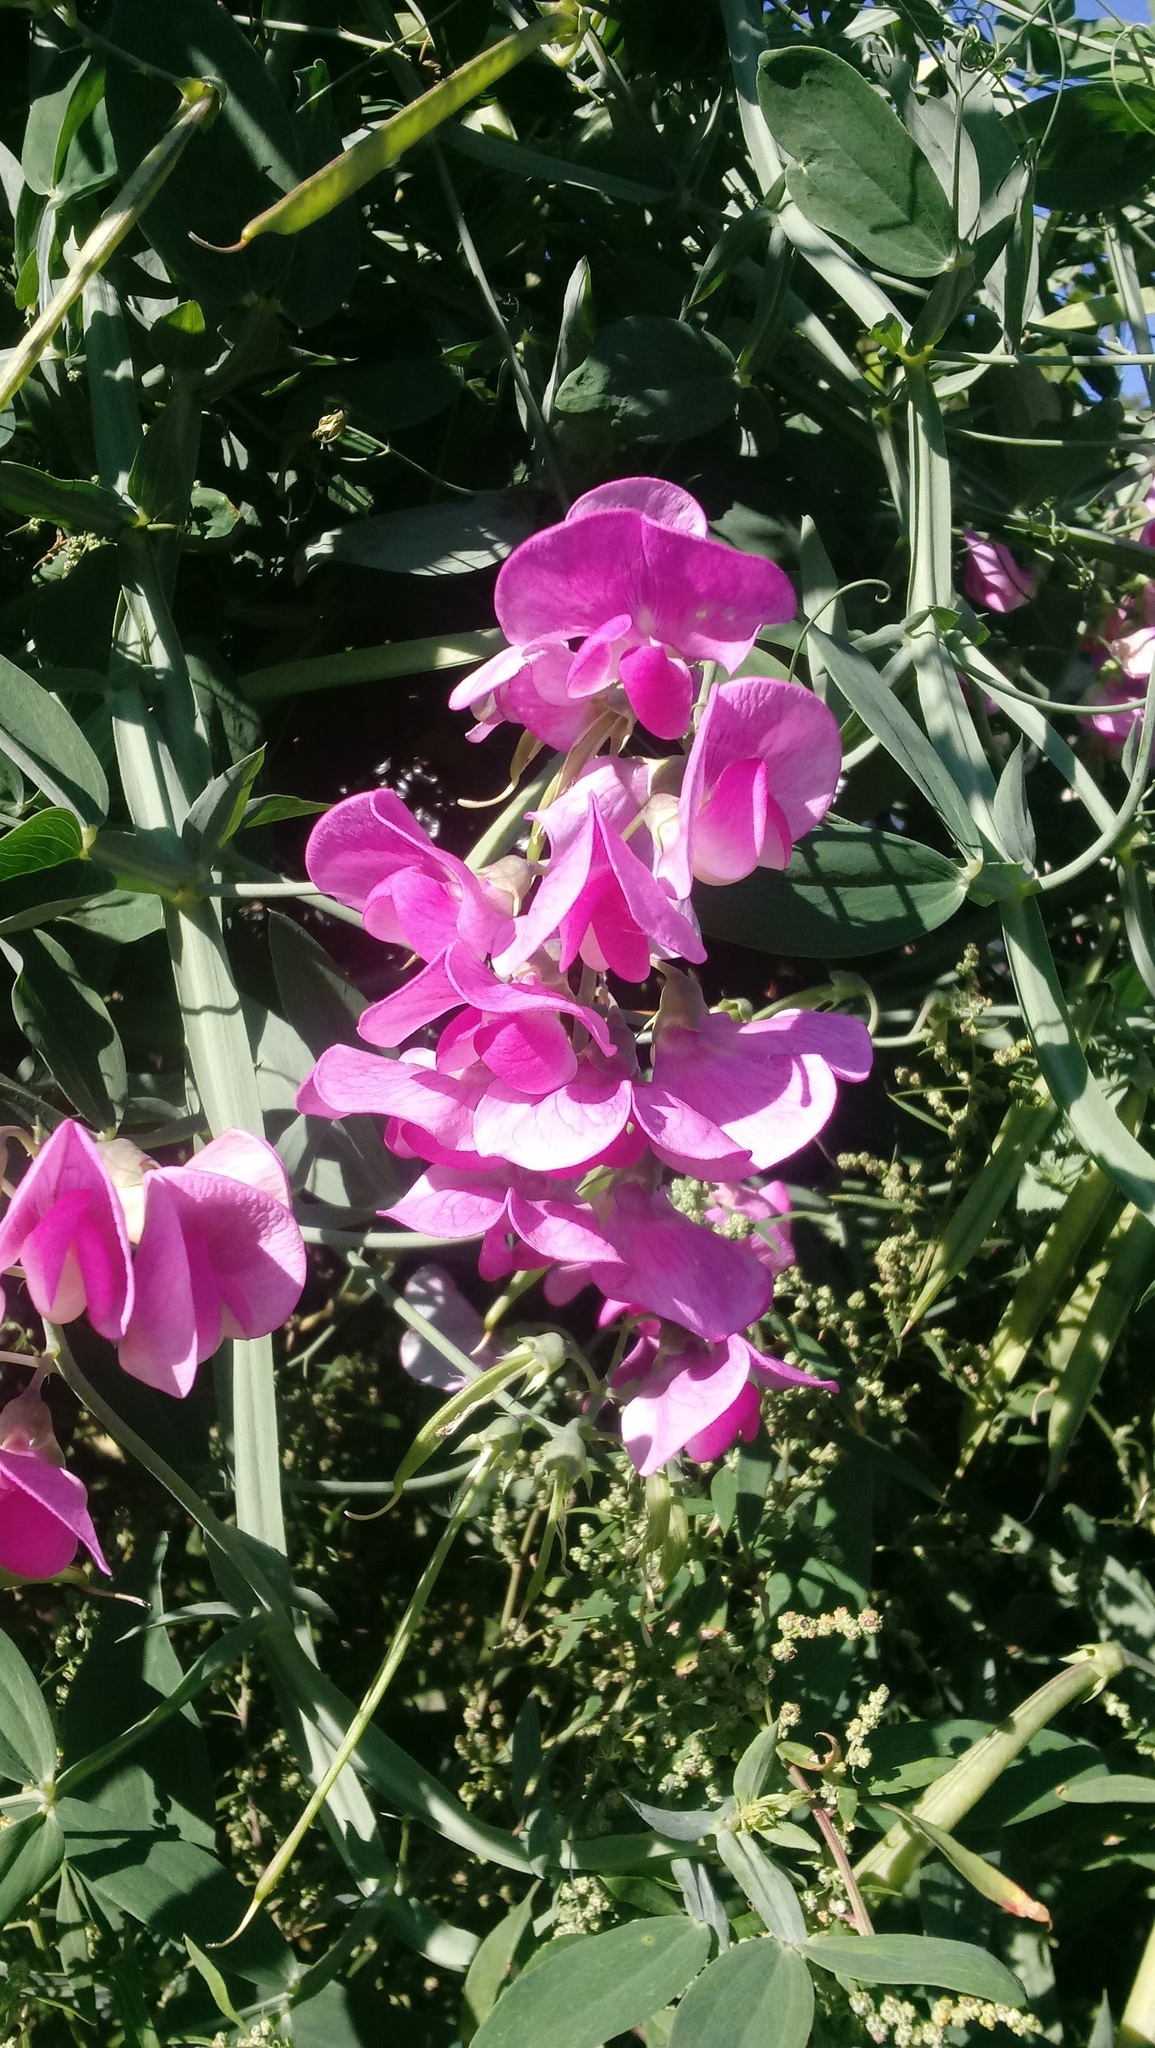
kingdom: Plantae
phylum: Tracheophyta
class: Magnoliopsida
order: Fabales
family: Fabaceae
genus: Lathyrus
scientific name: Lathyrus latifolius
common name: Perennial pea
